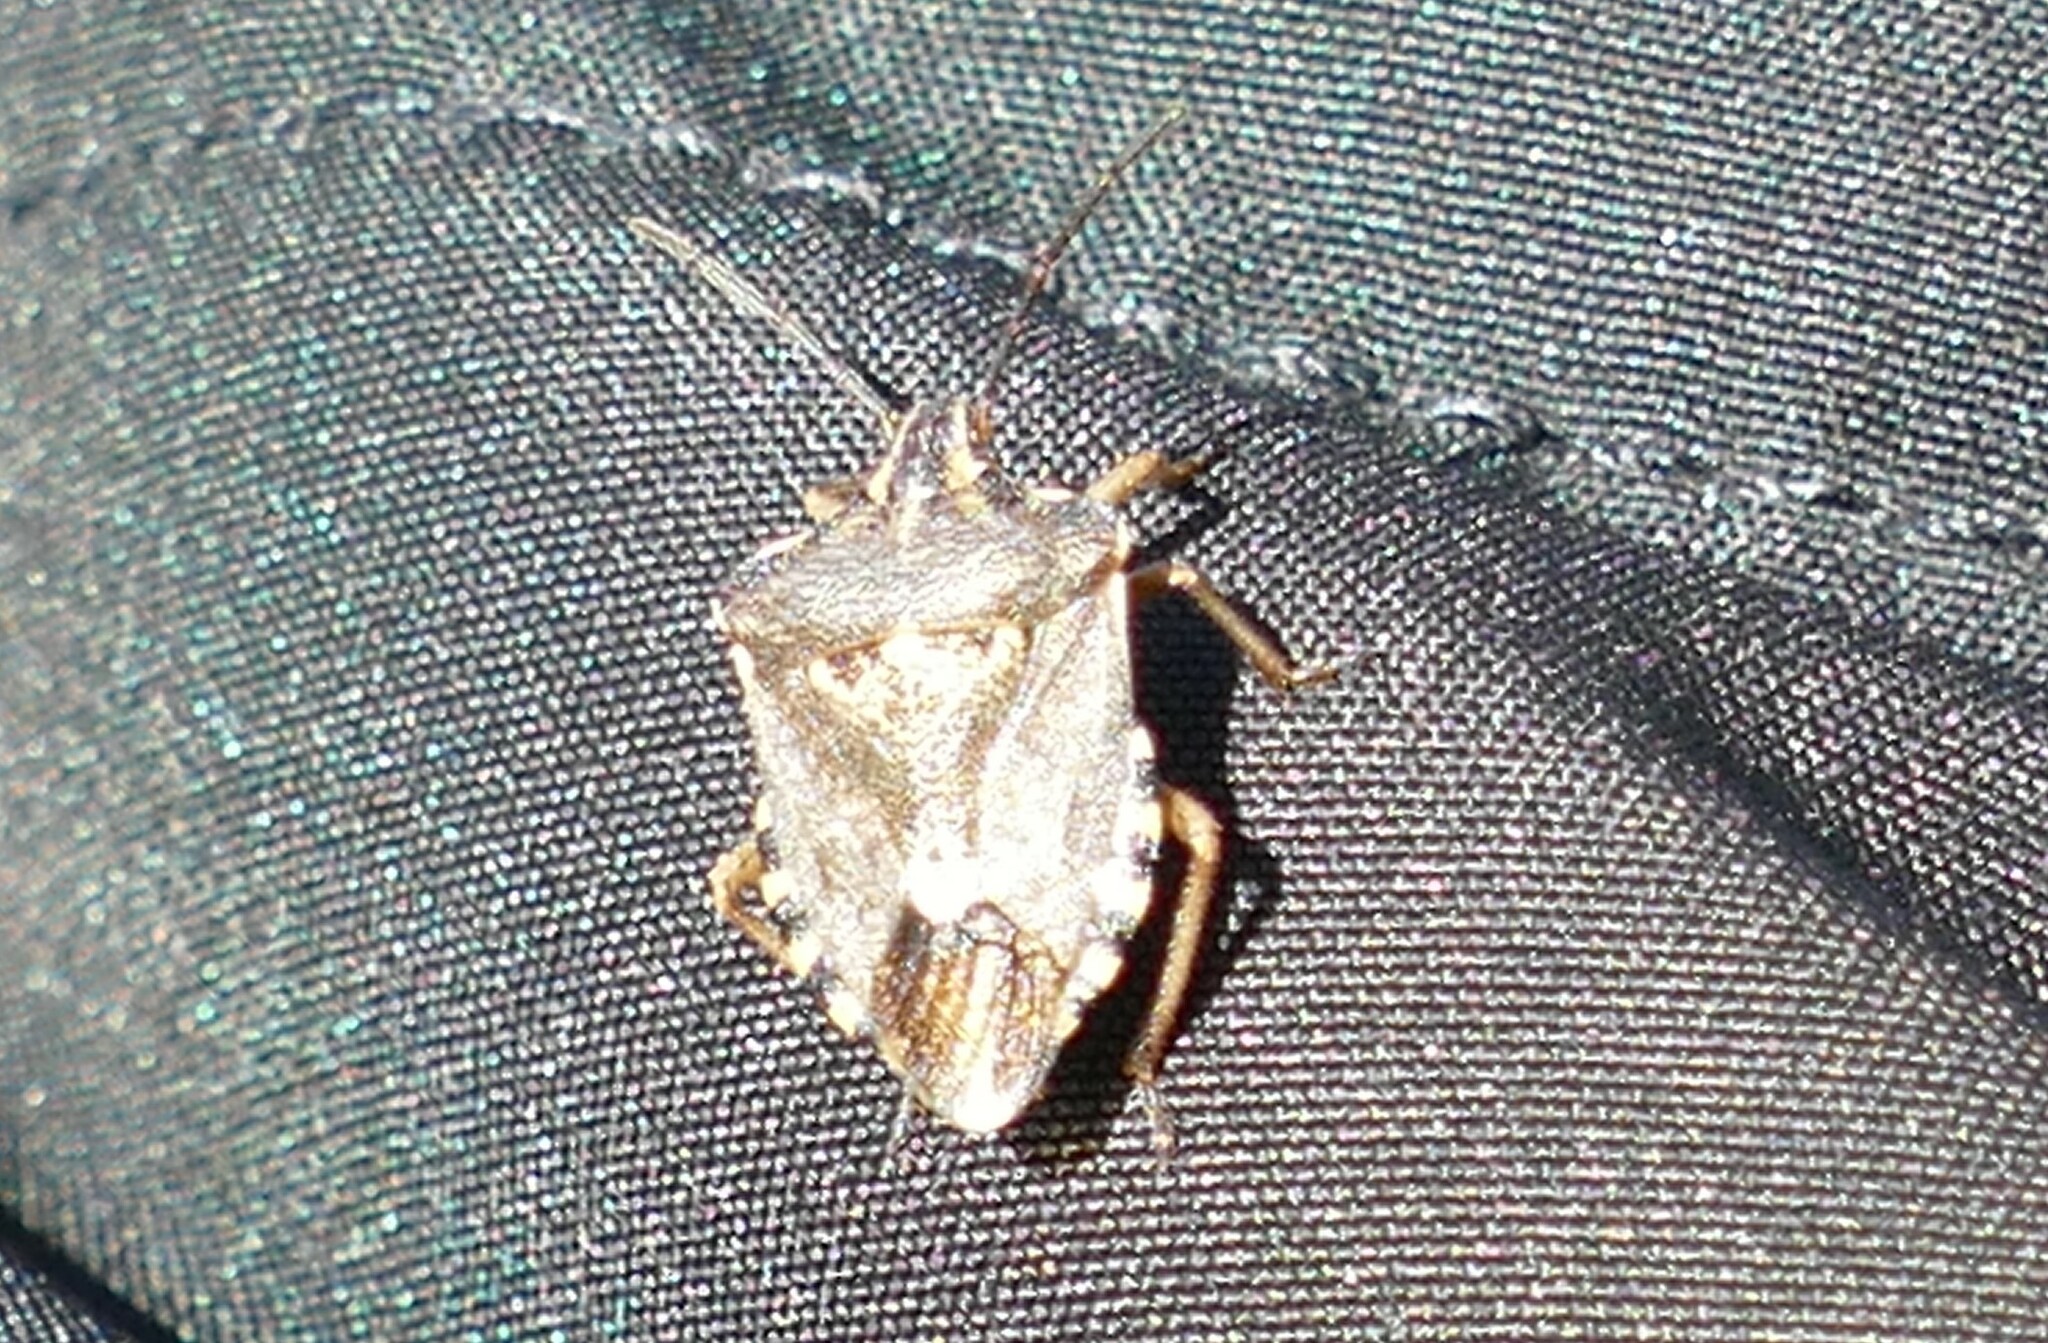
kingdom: Animalia
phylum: Arthropoda
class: Insecta
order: Hemiptera
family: Miridae
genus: Orthops
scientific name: Orthops kalmii
